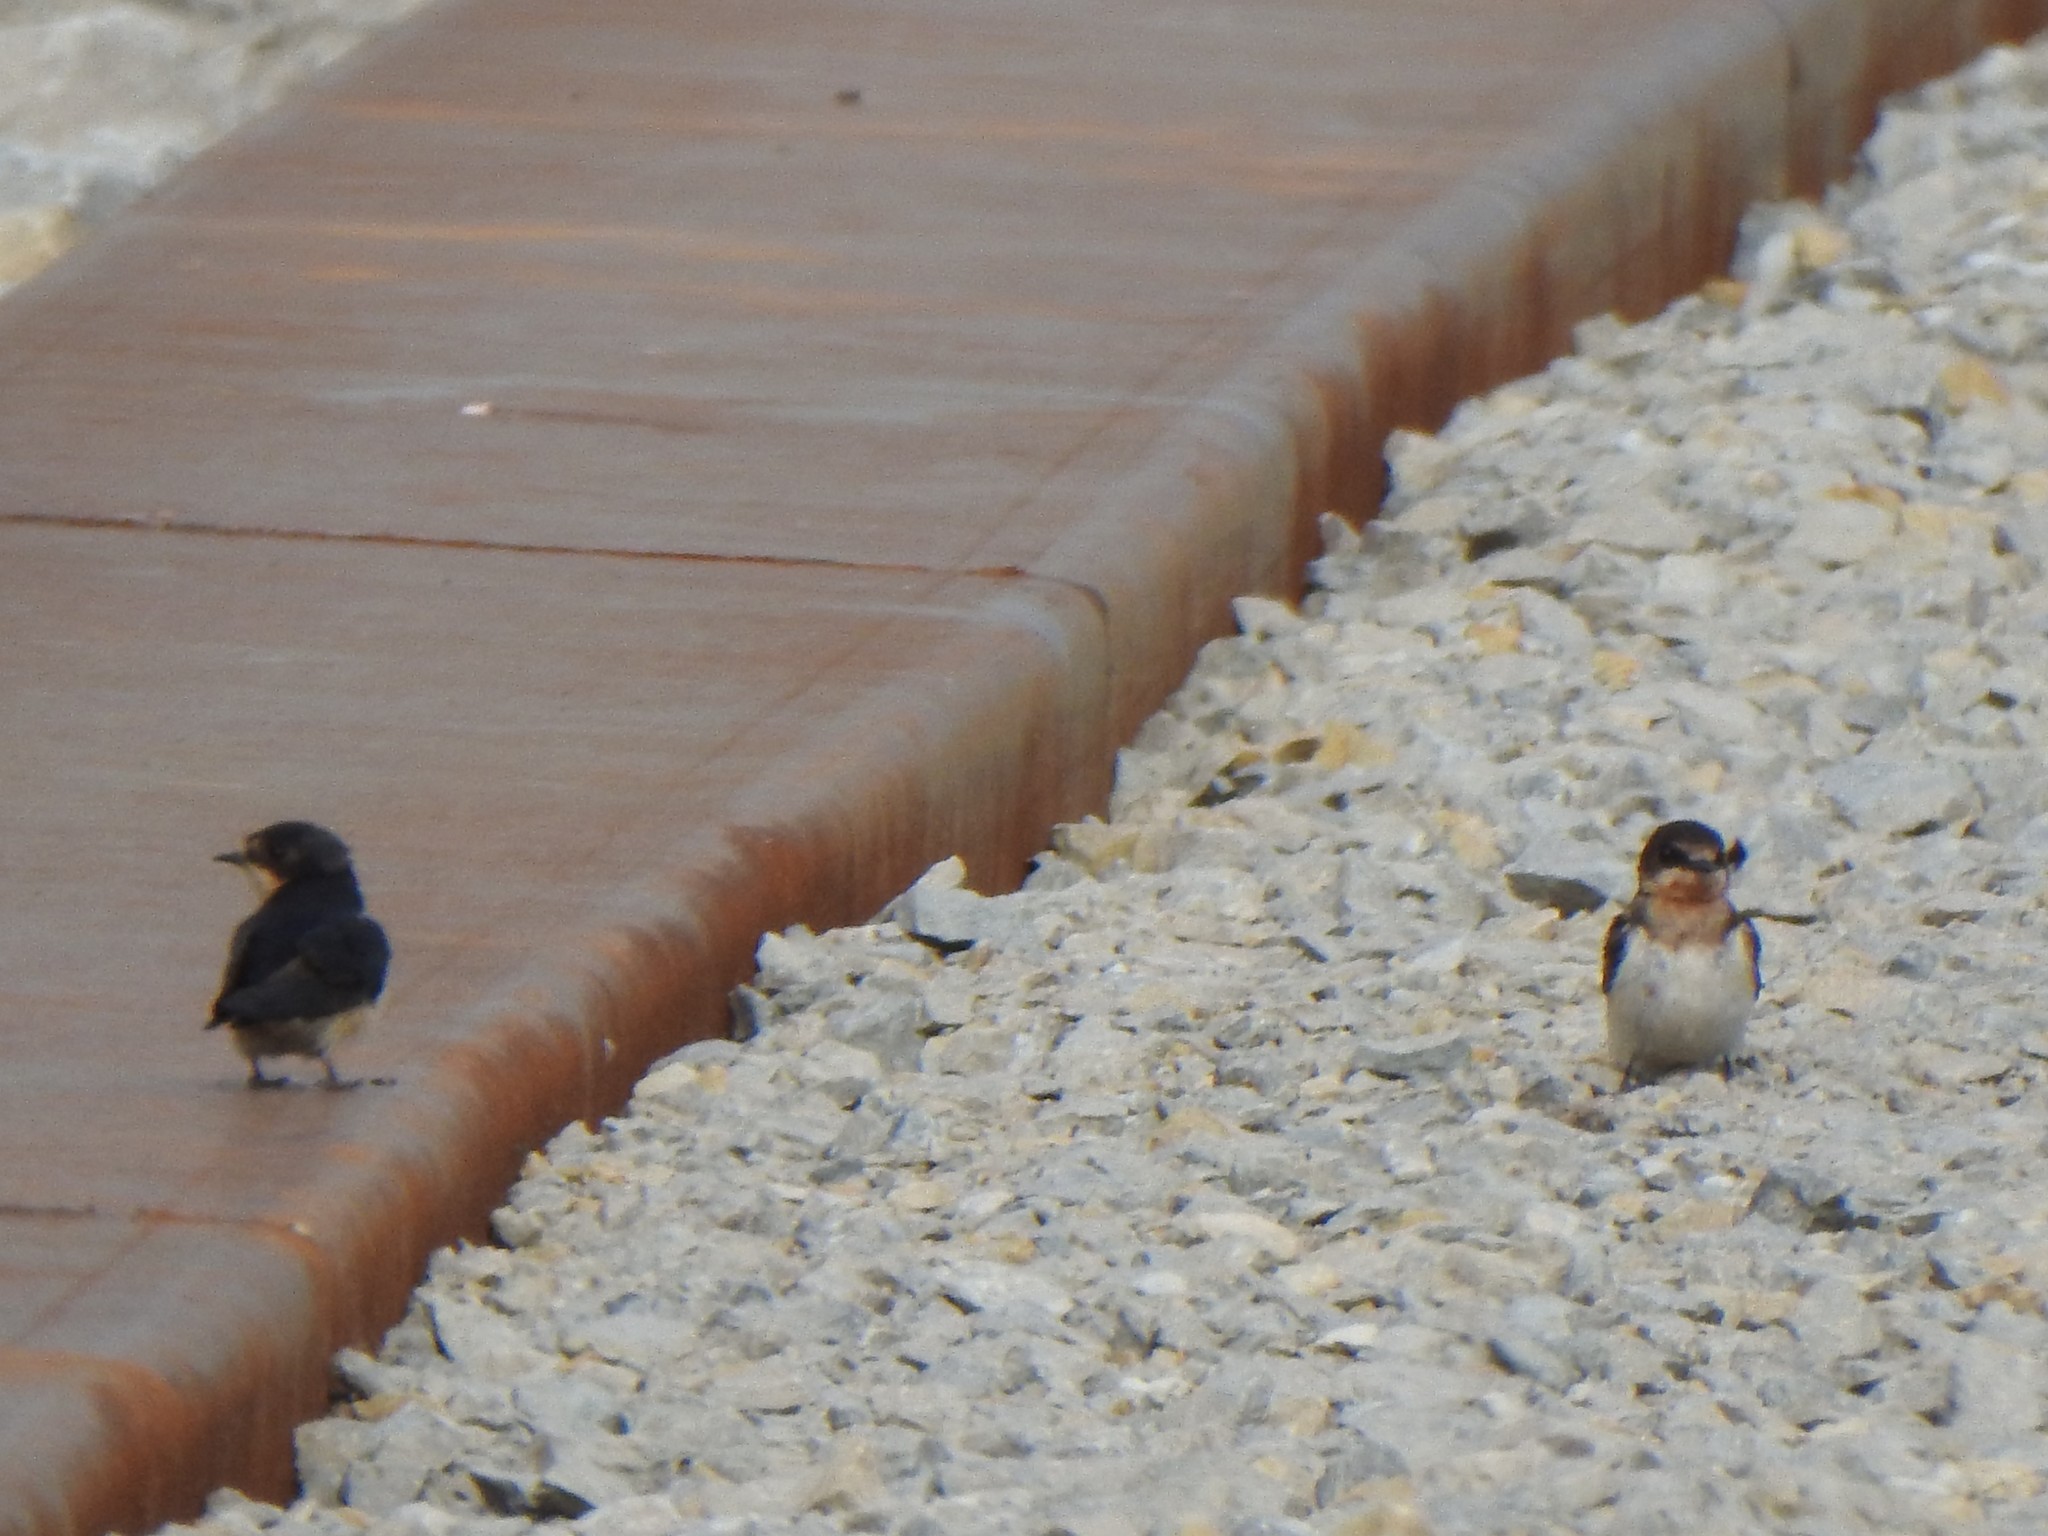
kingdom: Animalia
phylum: Chordata
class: Aves
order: Passeriformes
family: Hirundinidae
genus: Hirundo
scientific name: Hirundo rustica
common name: Barn swallow
